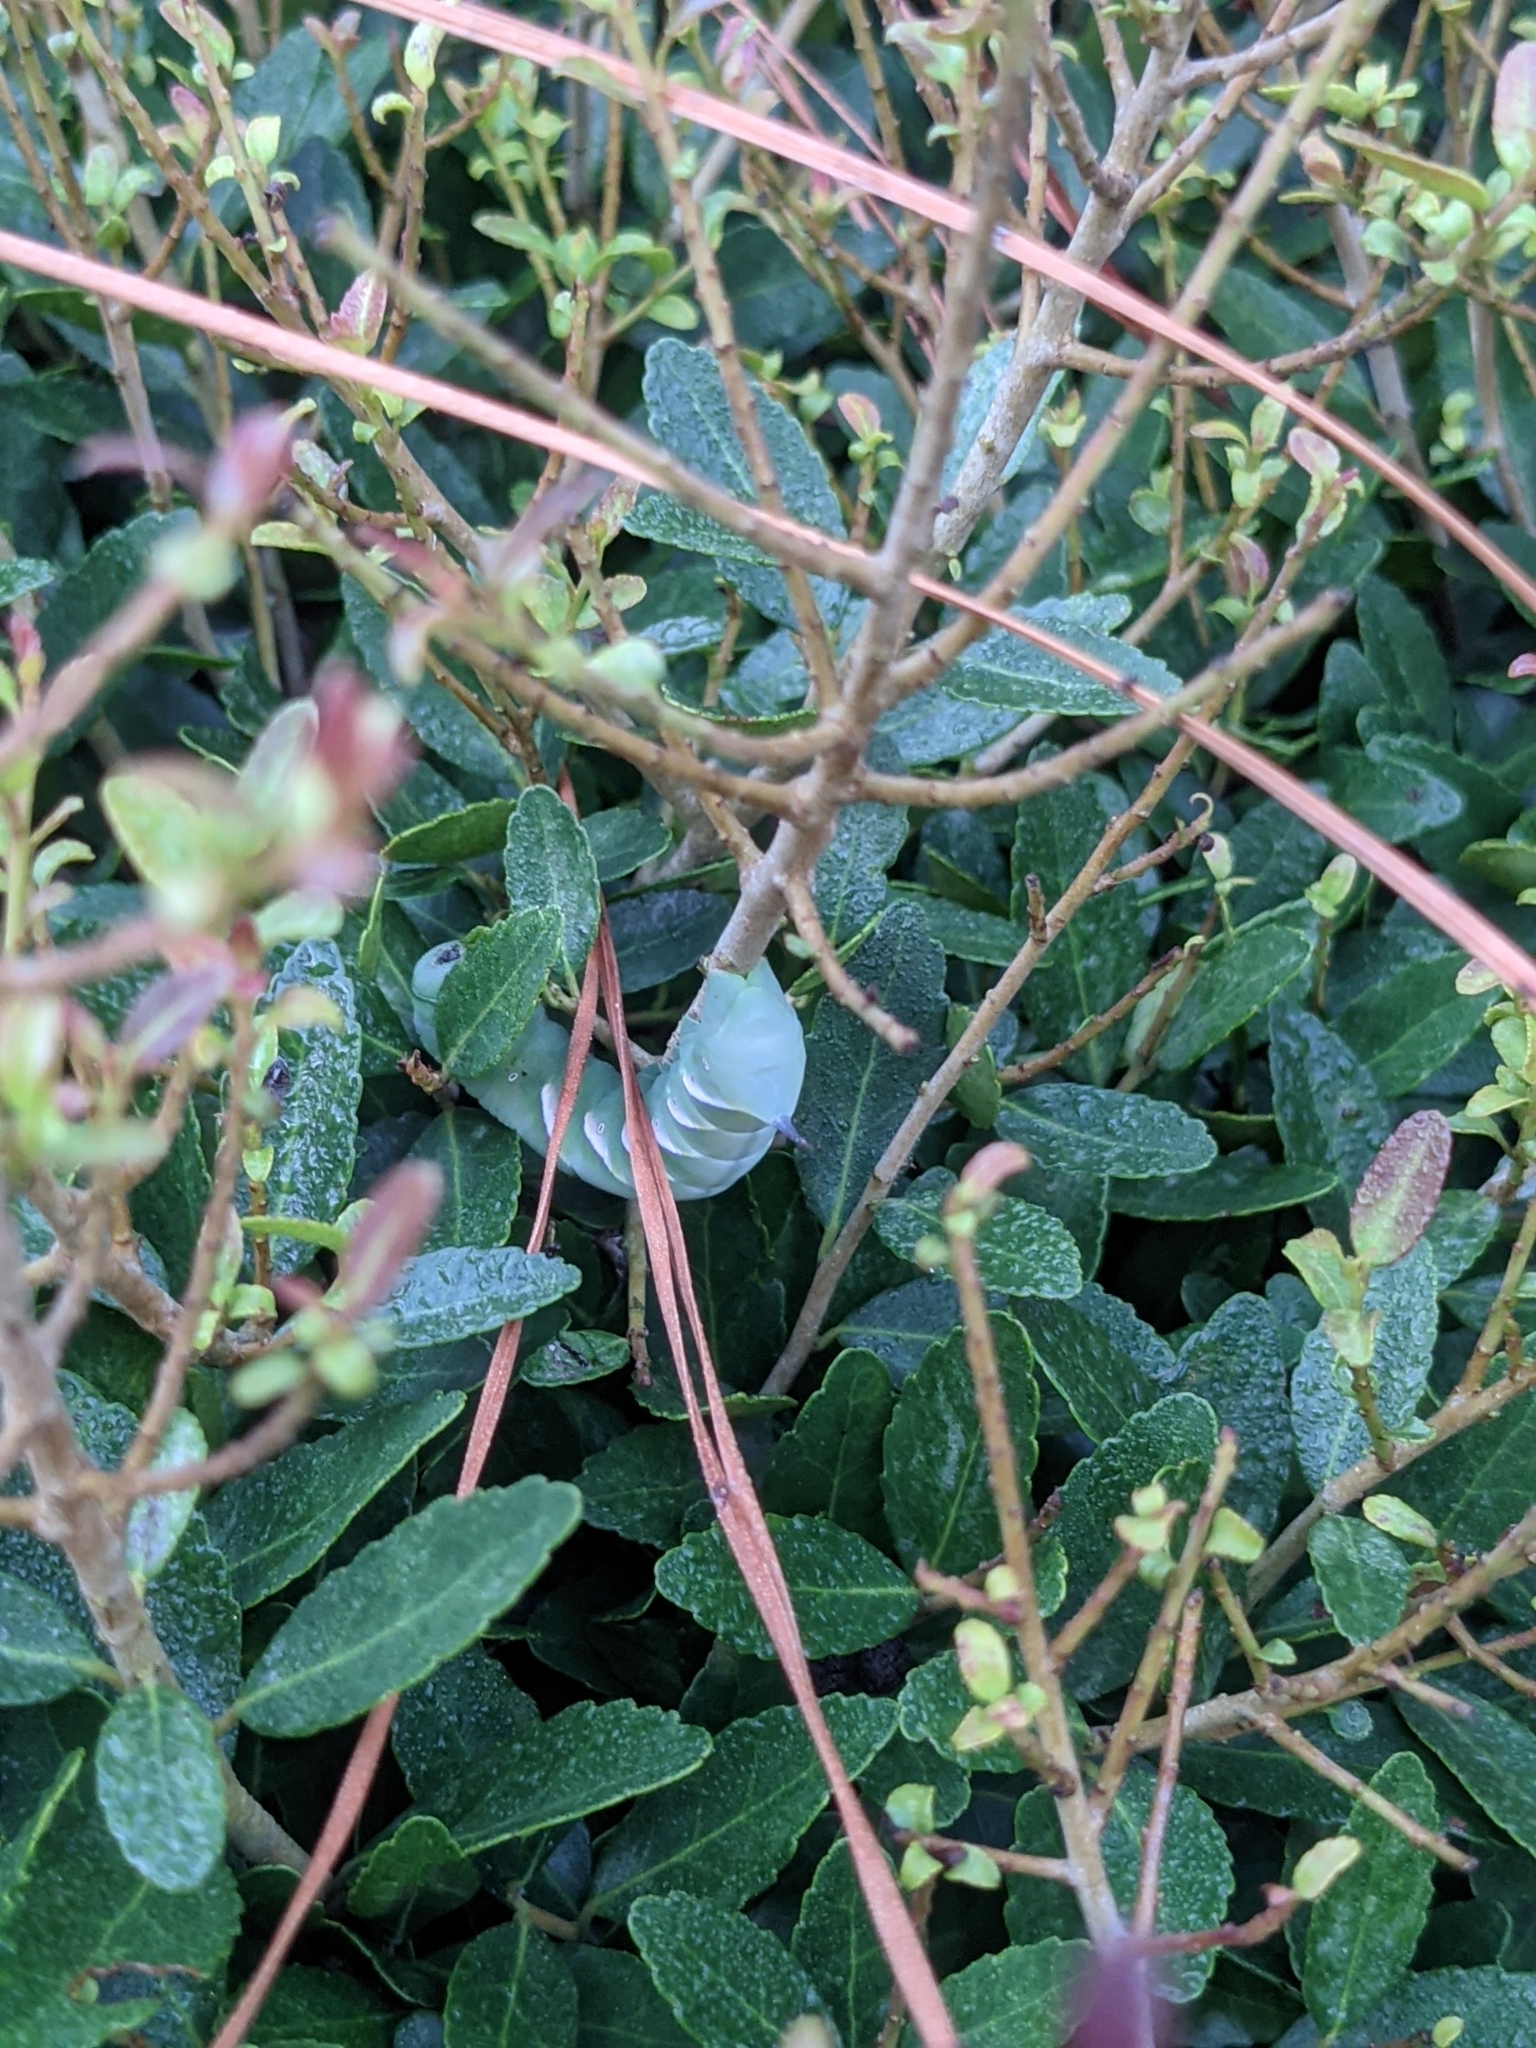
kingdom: Animalia
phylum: Arthropoda
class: Insecta
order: Lepidoptera
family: Sphingidae
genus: Dolba
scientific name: Dolba hyloeus
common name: Pawpaw sphinx
